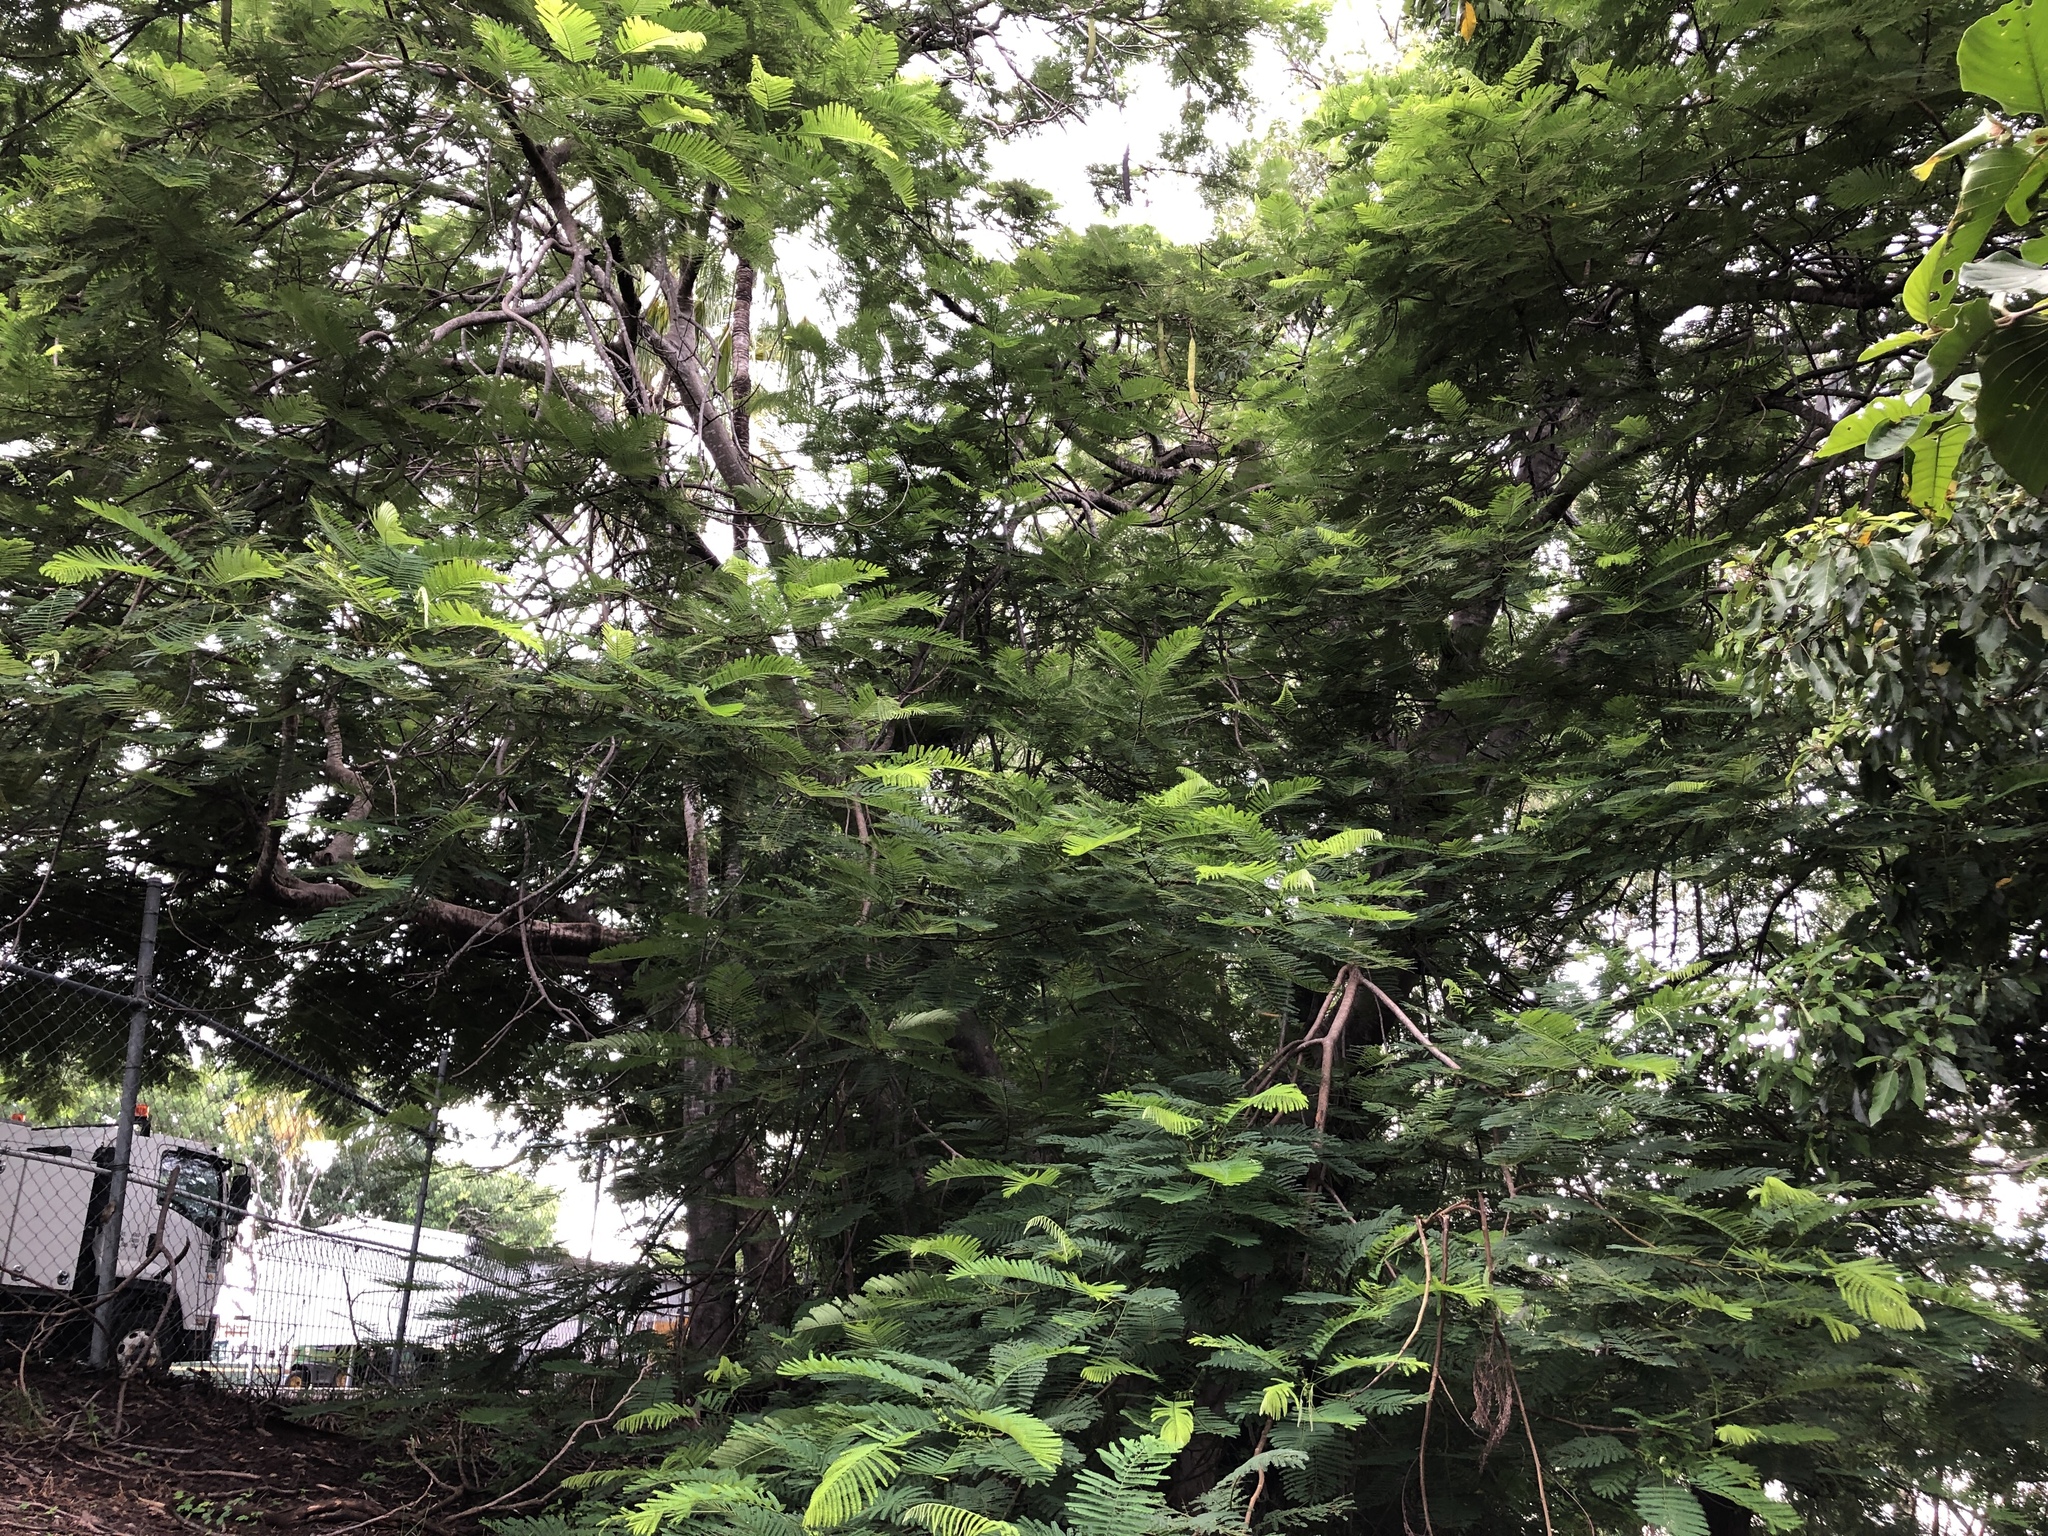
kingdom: Plantae
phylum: Tracheophyta
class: Magnoliopsida
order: Fabales
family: Fabaceae
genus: Delonix
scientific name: Delonix regia
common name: Royal poinciana
